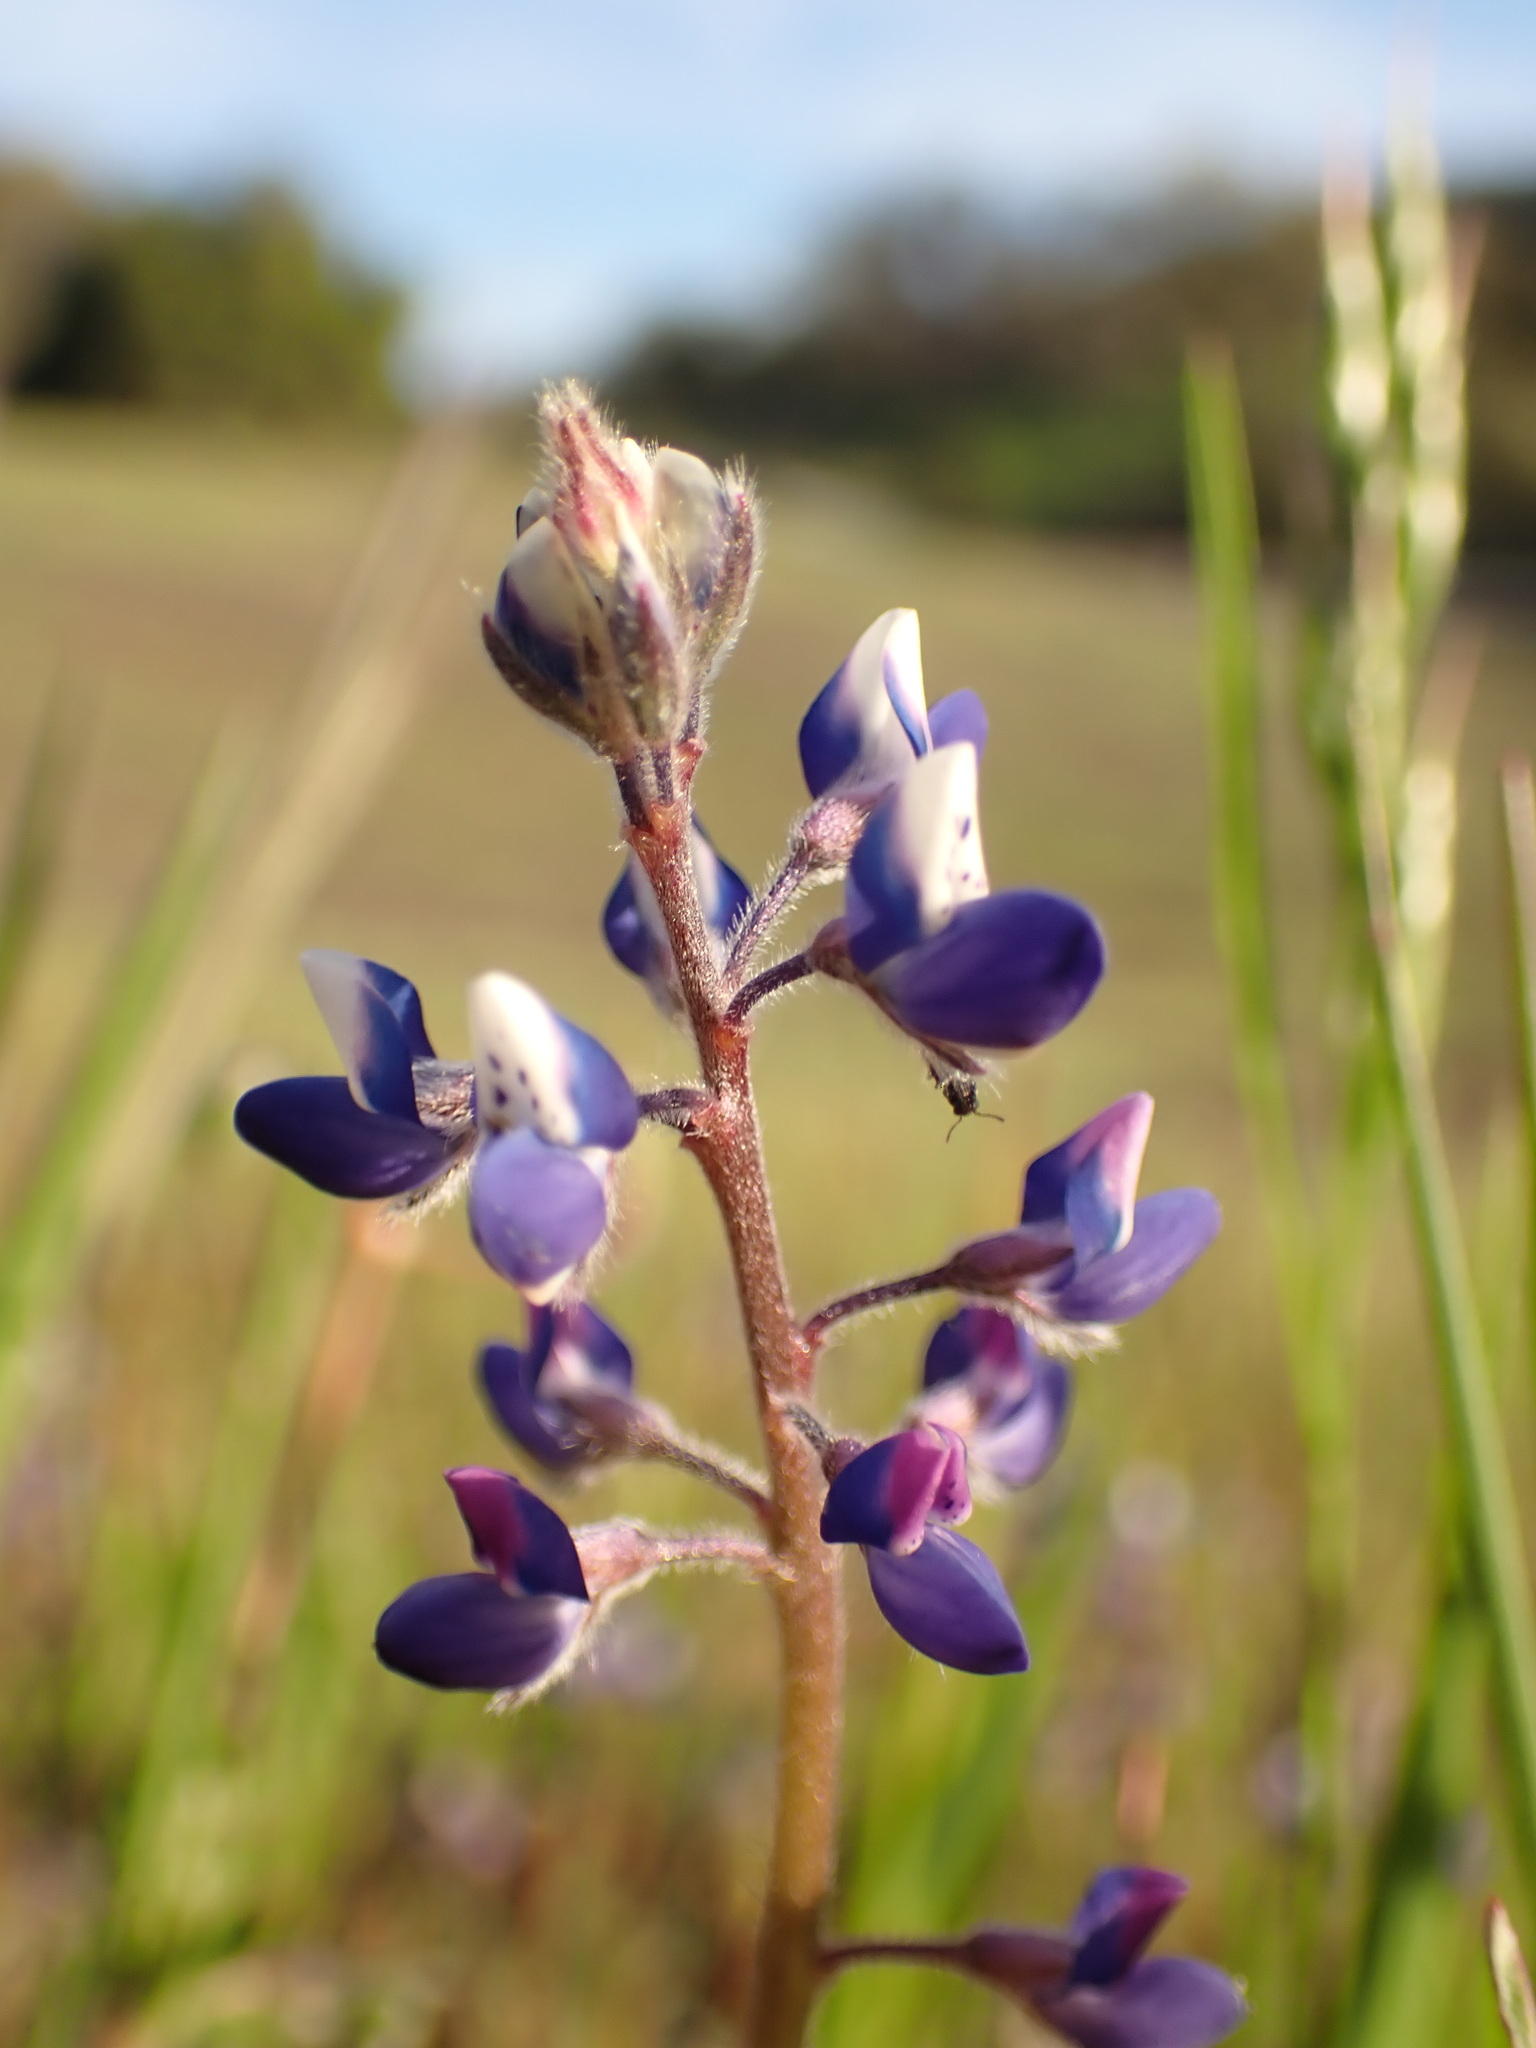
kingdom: Plantae
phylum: Tracheophyta
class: Magnoliopsida
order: Fabales
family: Fabaceae
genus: Lupinus
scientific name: Lupinus bicolor
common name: Miniature lupine
